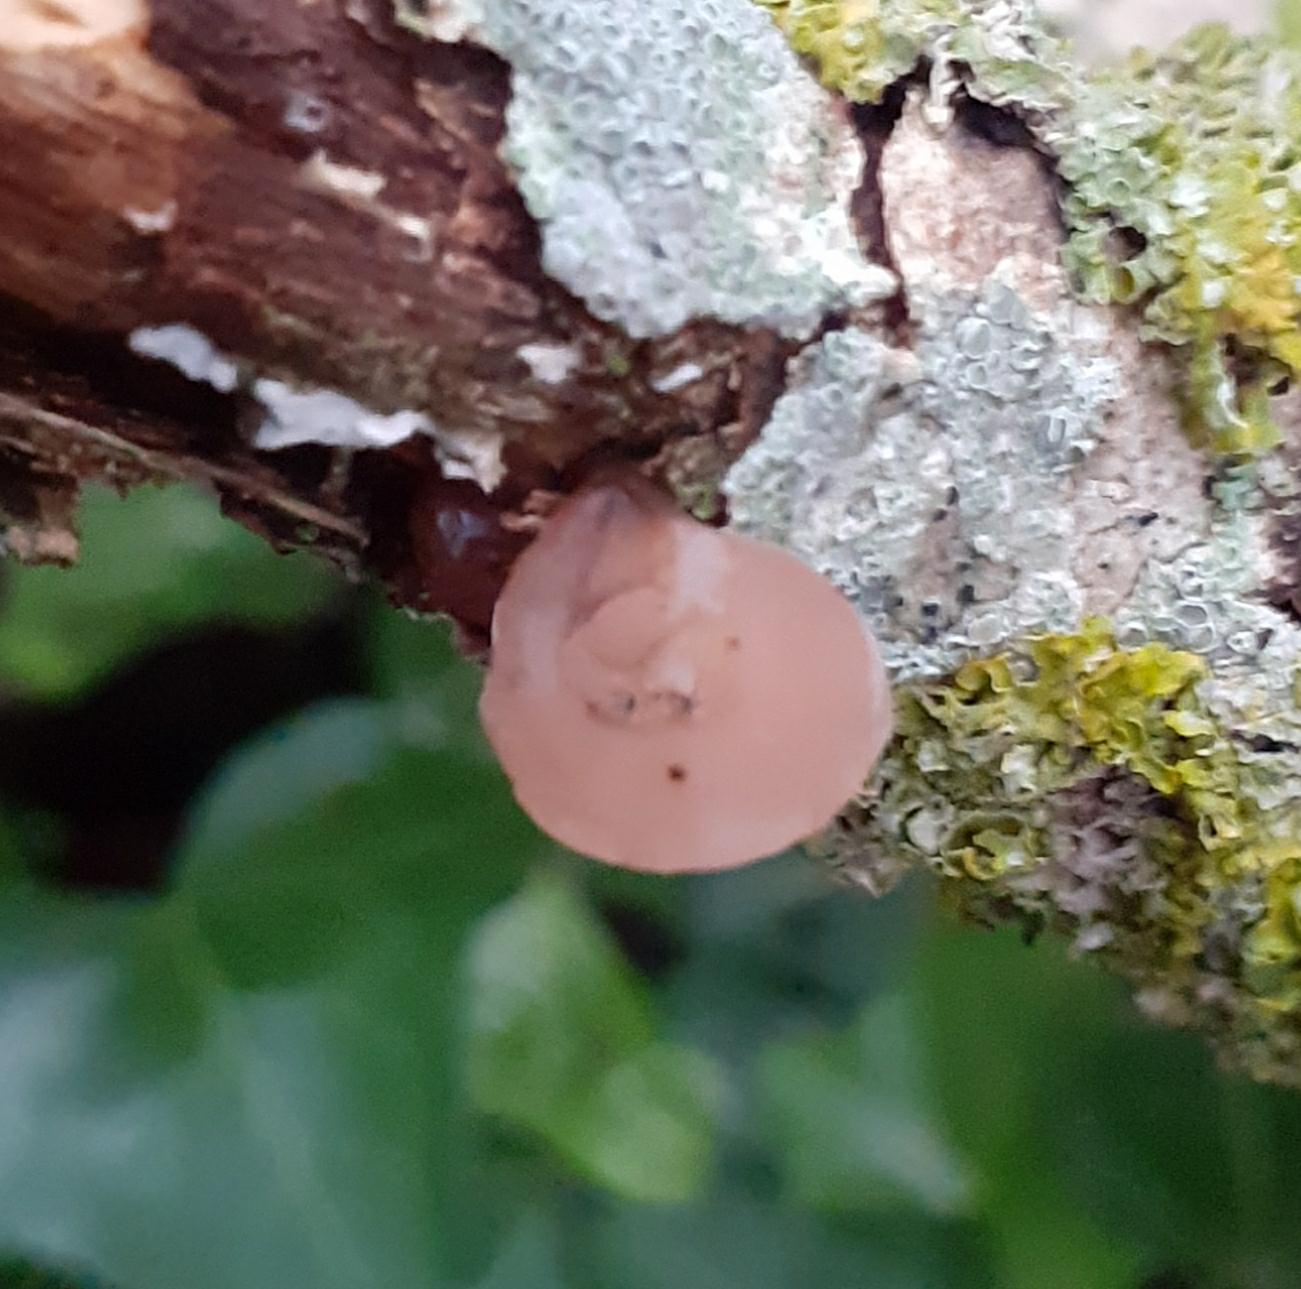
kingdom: Fungi
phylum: Basidiomycota
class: Agaricomycetes
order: Auriculariales
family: Auriculariaceae
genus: Auricularia
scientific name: Auricularia auricula-judae
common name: Jelly ear
